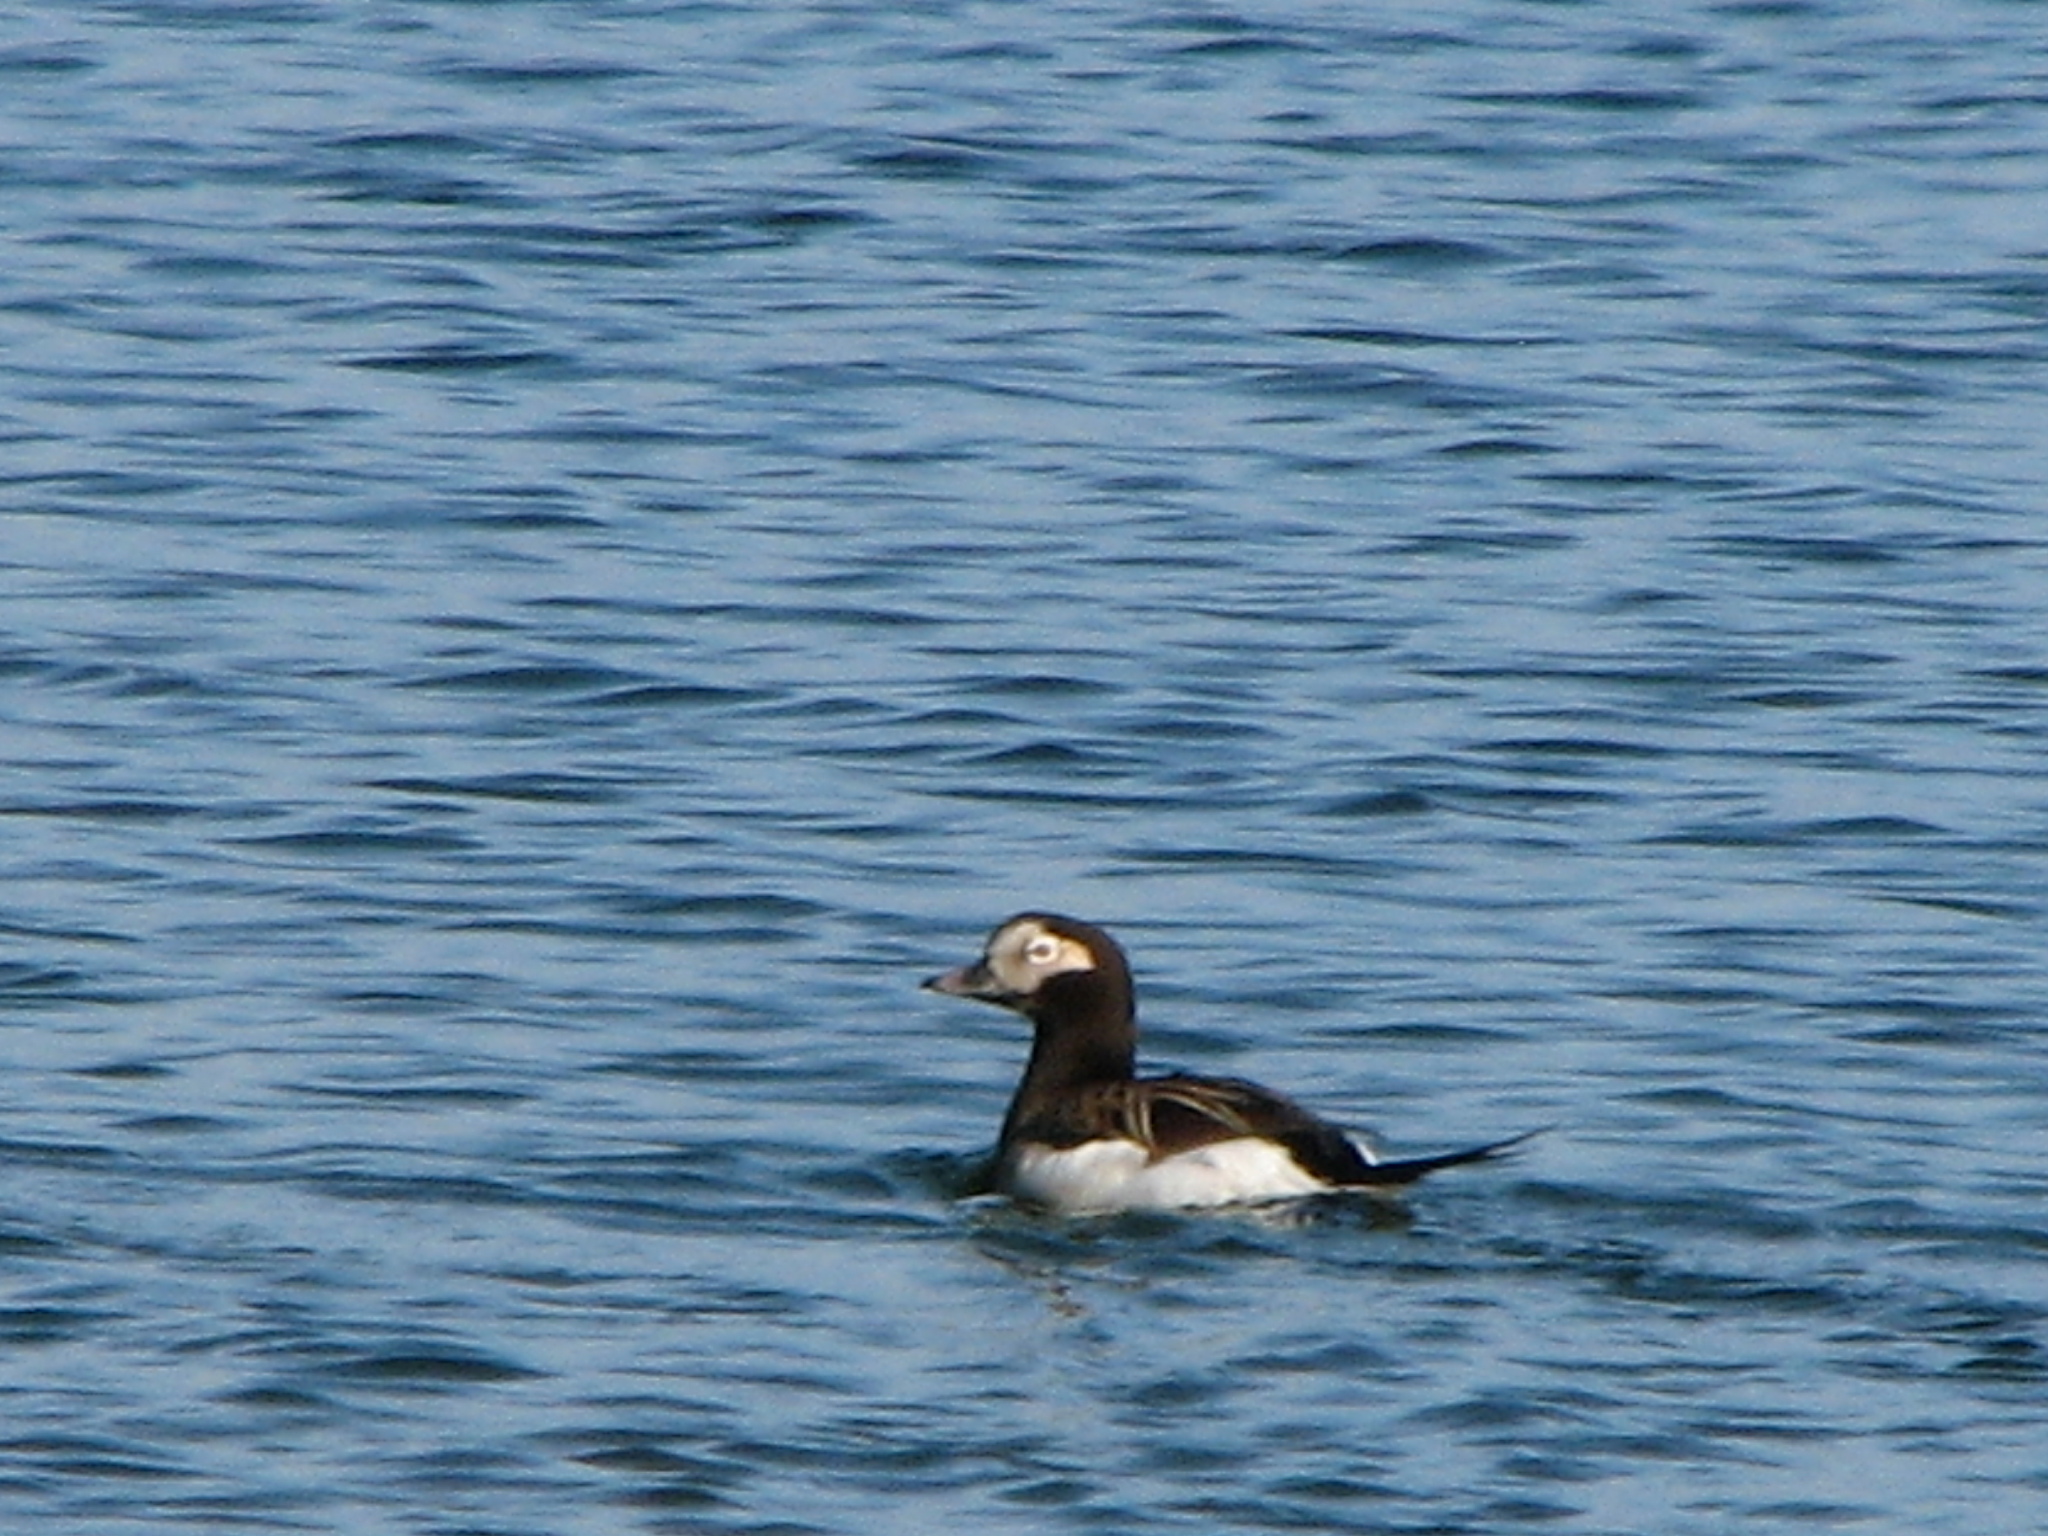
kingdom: Animalia
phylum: Chordata
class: Aves
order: Anseriformes
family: Anatidae
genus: Clangula
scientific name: Clangula hyemalis
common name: Long-tailed duck
